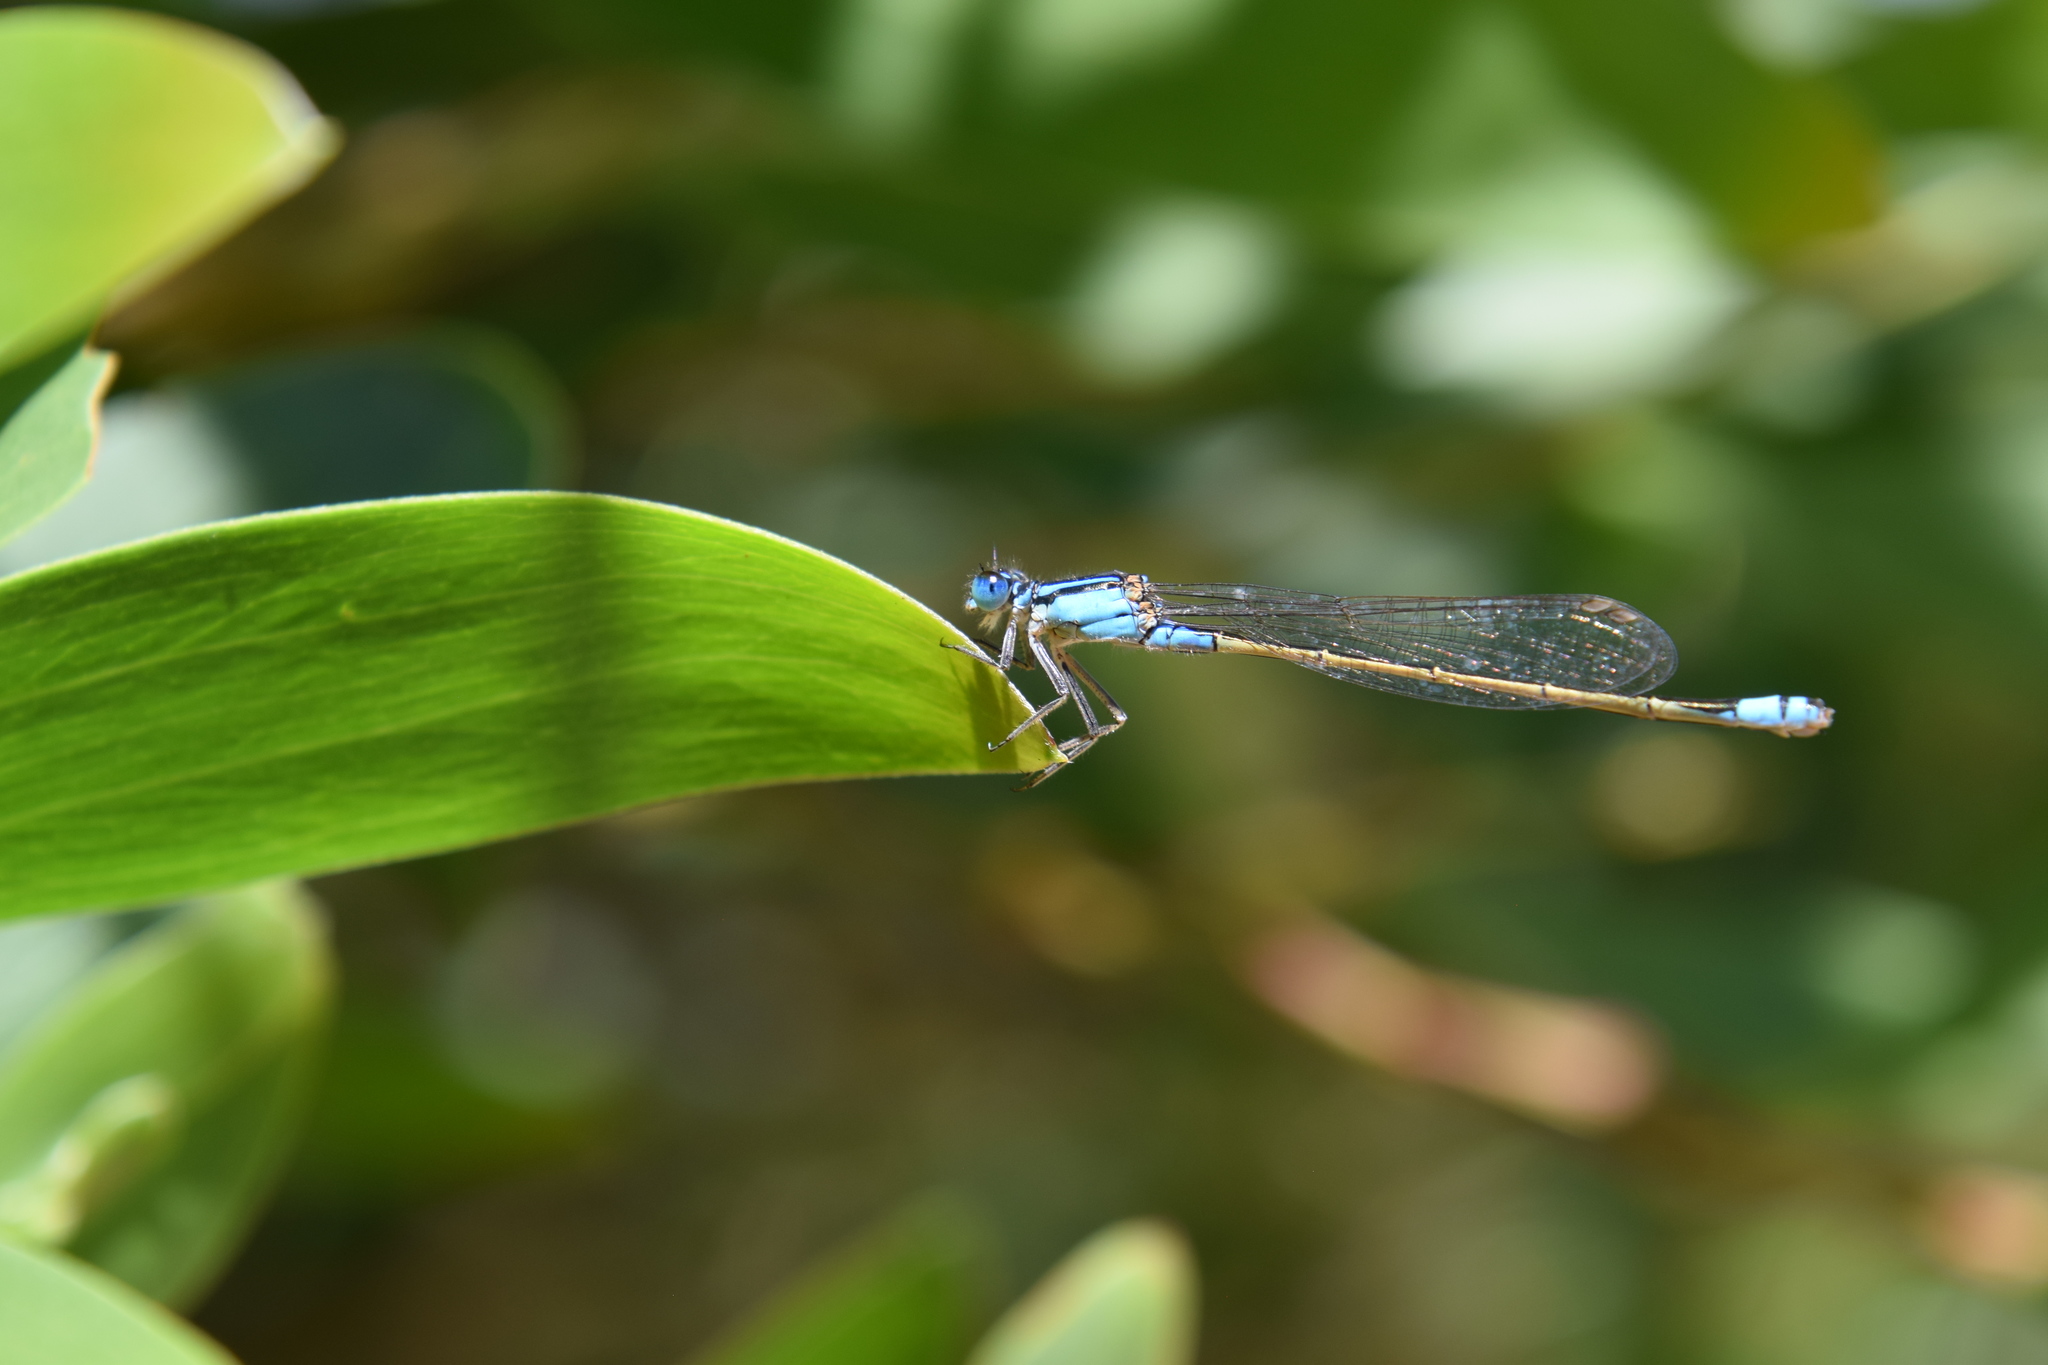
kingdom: Animalia
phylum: Arthropoda
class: Insecta
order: Odonata
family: Coenagrionidae
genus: Ischnura
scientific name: Ischnura heterosticta
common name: Common bluetail
